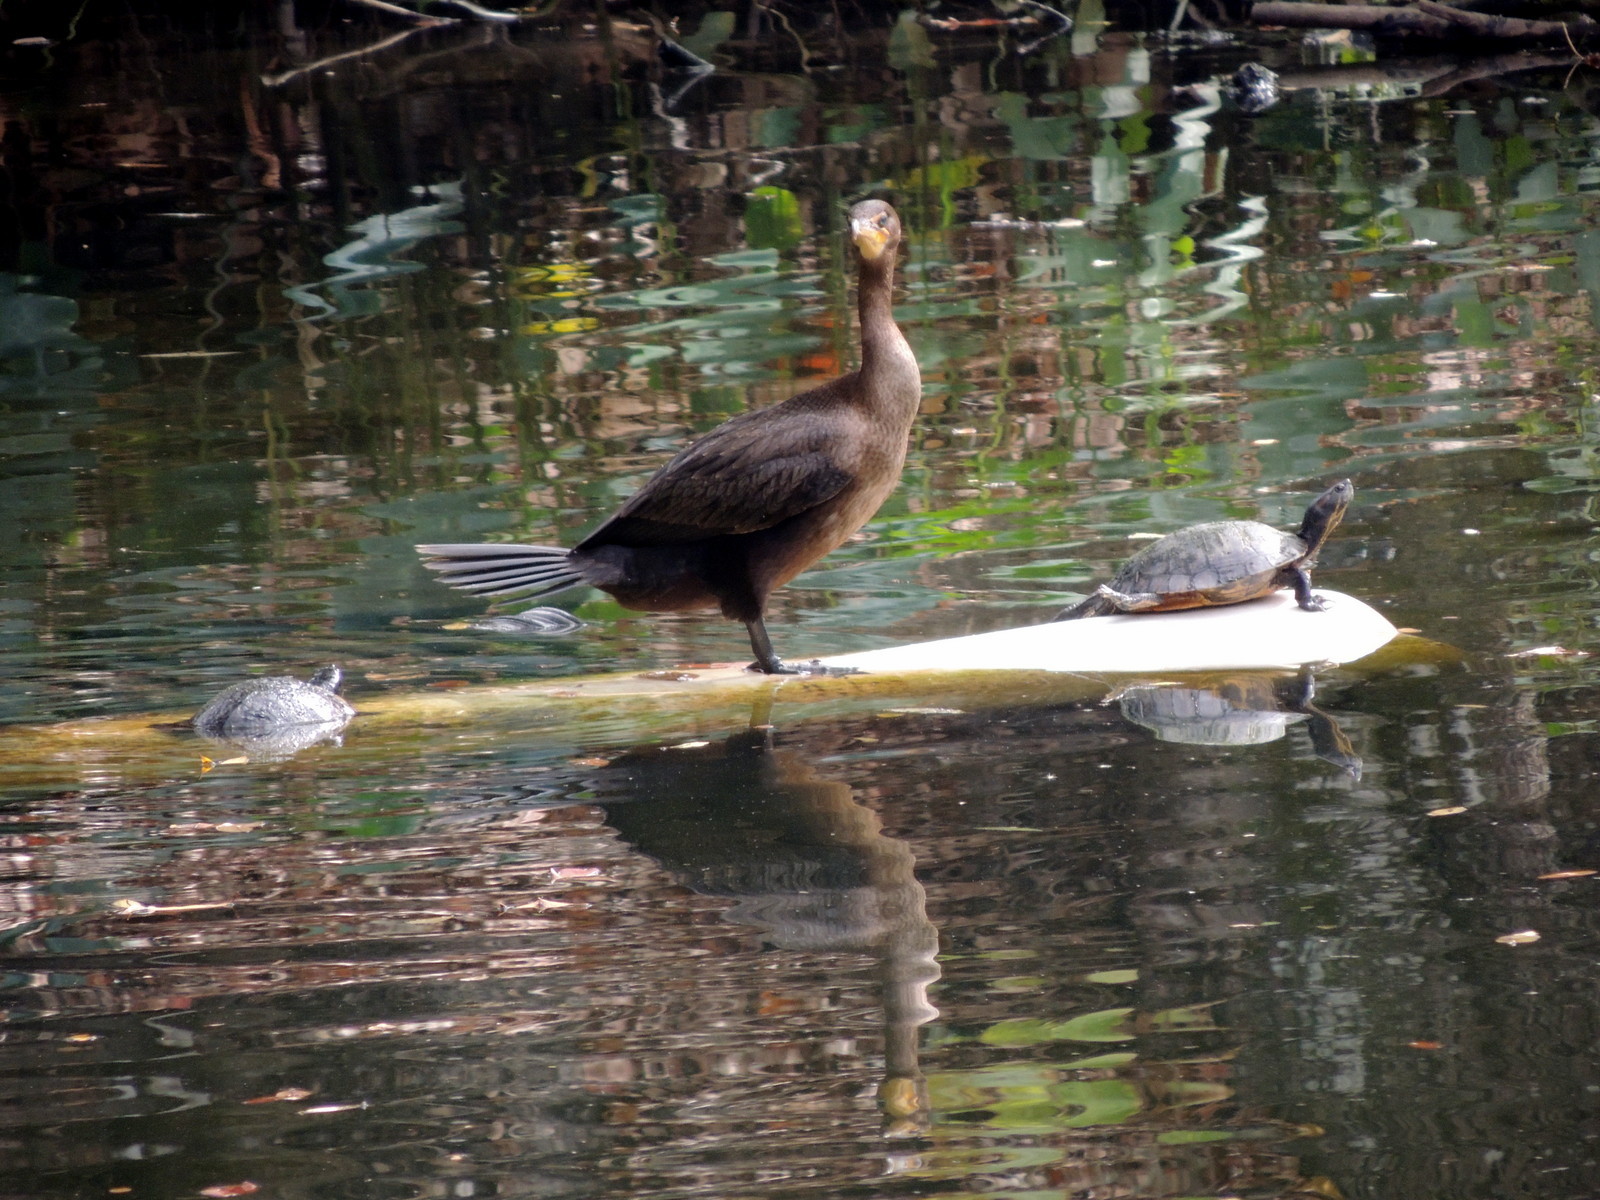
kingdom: Animalia
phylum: Chordata
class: Aves
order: Suliformes
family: Phalacrocoracidae
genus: Phalacrocorax
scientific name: Phalacrocorax auritus
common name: Double-crested cormorant
